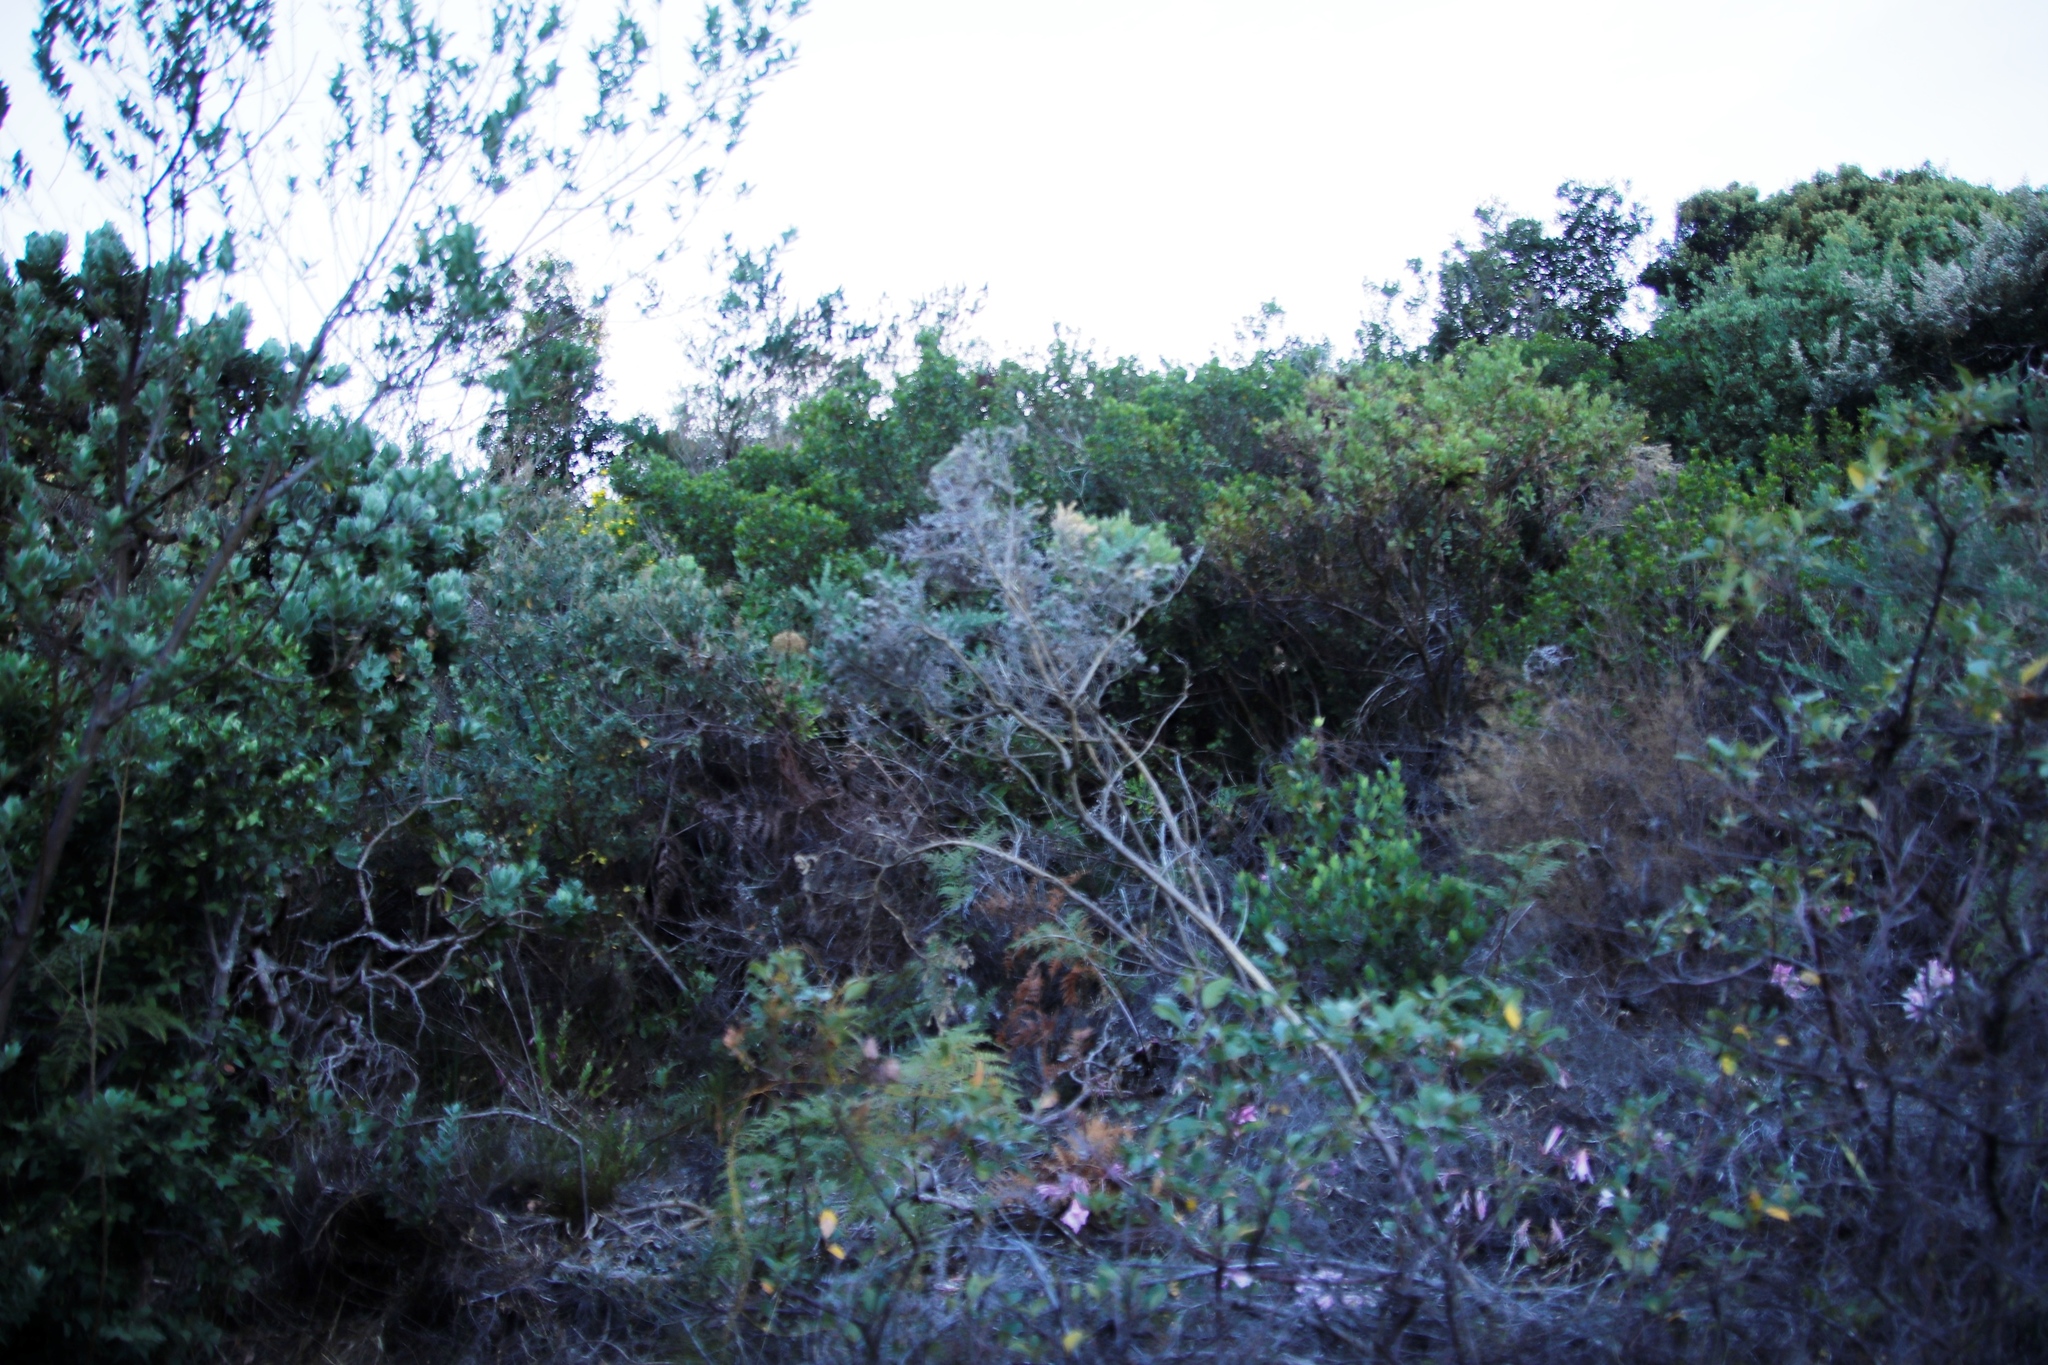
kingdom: Plantae
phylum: Tracheophyta
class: Magnoliopsida
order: Fabales
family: Fabaceae
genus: Aspalathus
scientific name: Aspalathus chenopoda
